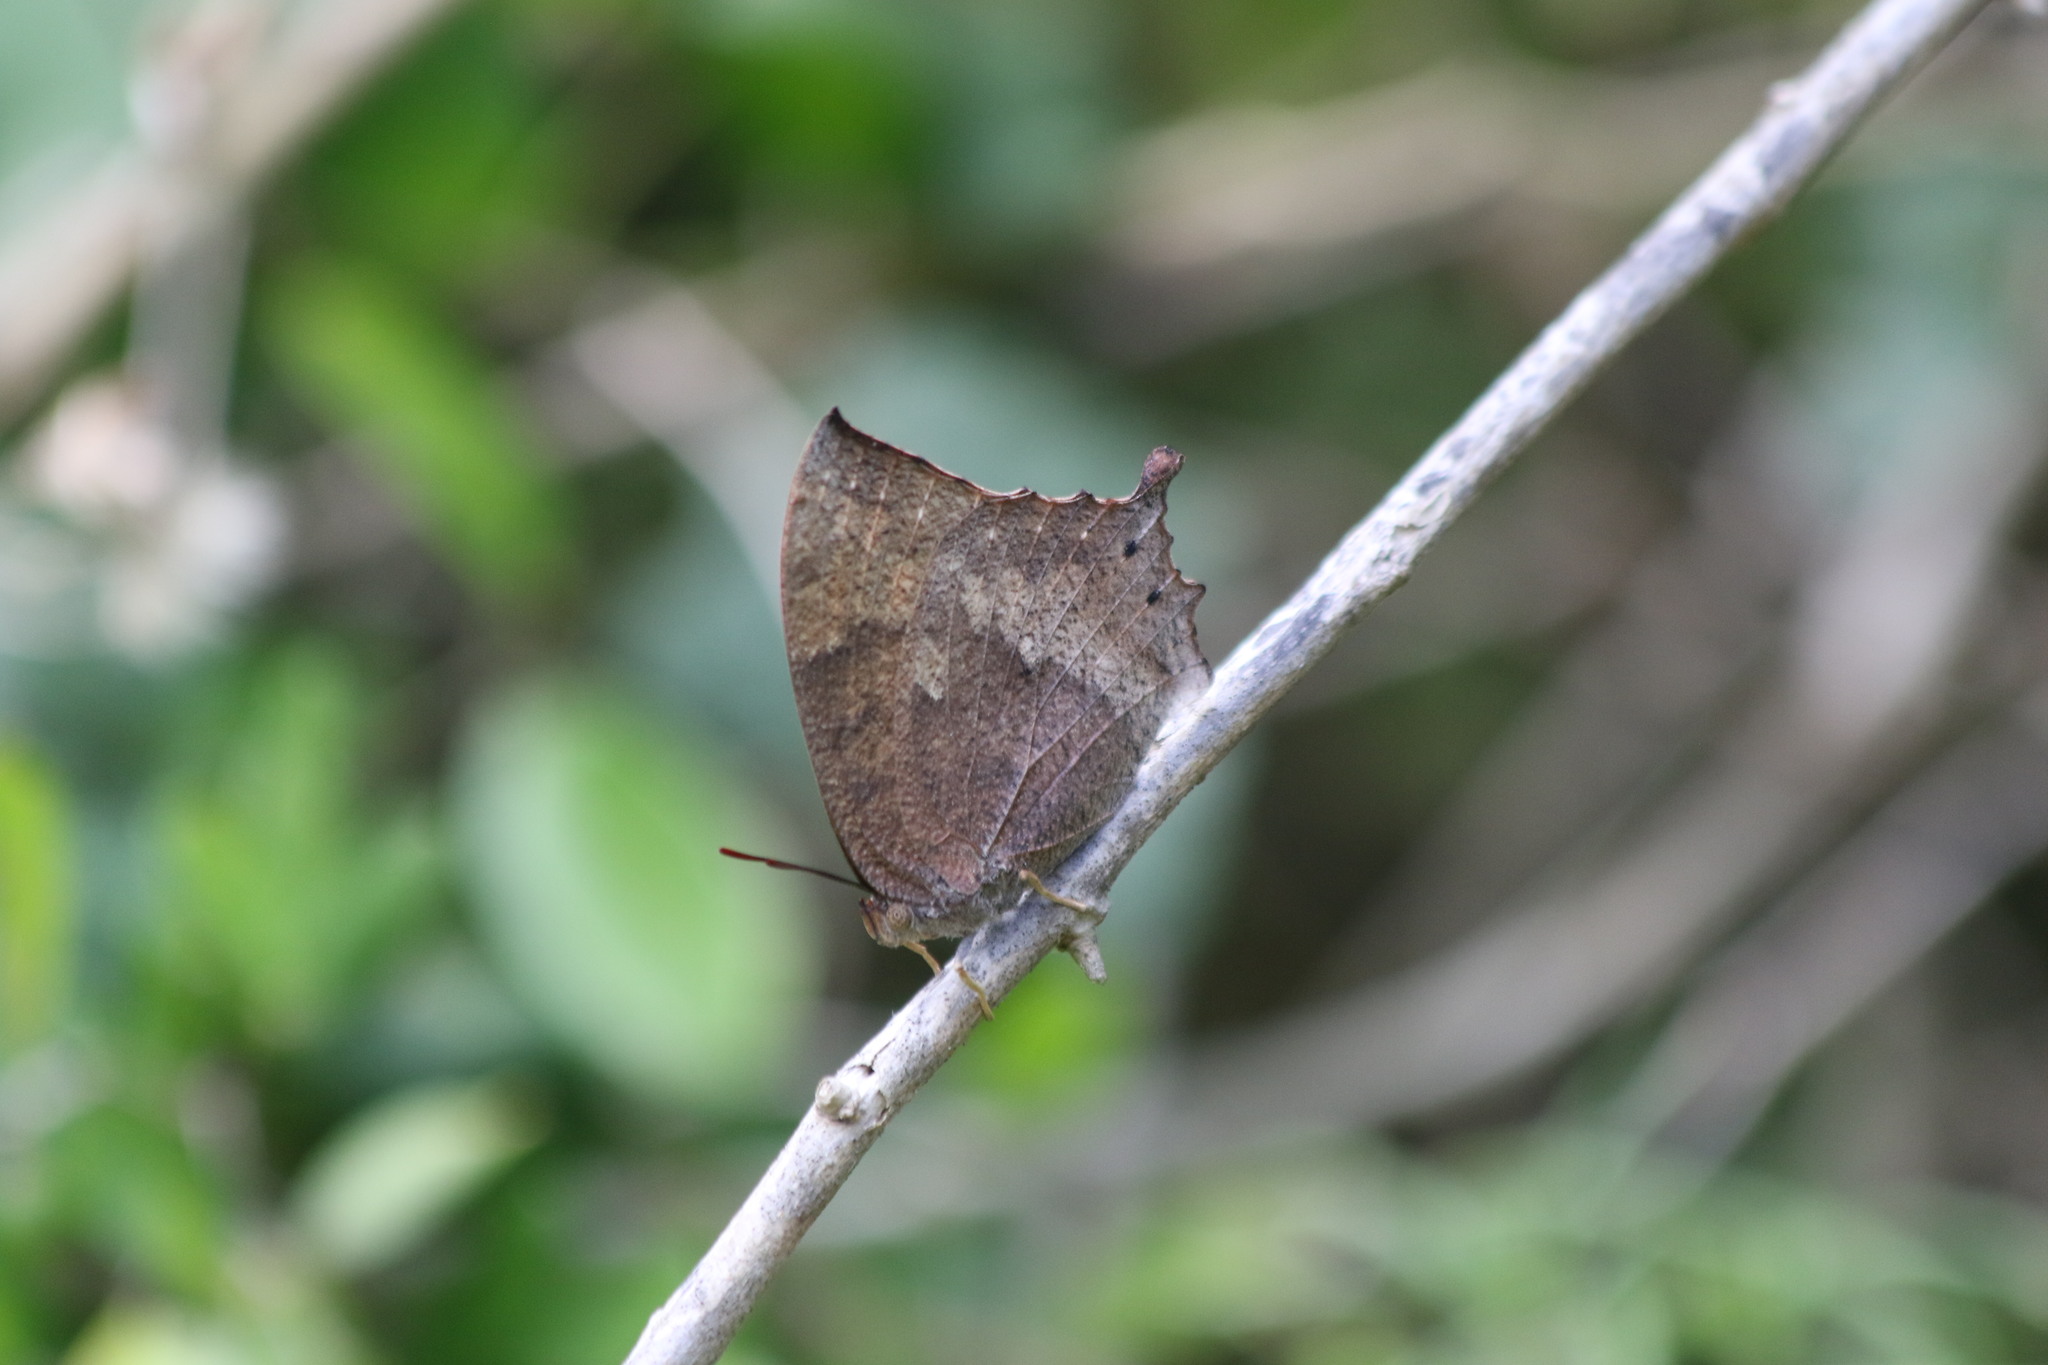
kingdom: Animalia
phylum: Arthropoda
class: Insecta
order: Lepidoptera
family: Nymphalidae
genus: Anaea
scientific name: Anaea aidea
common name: Tropical leafwing
